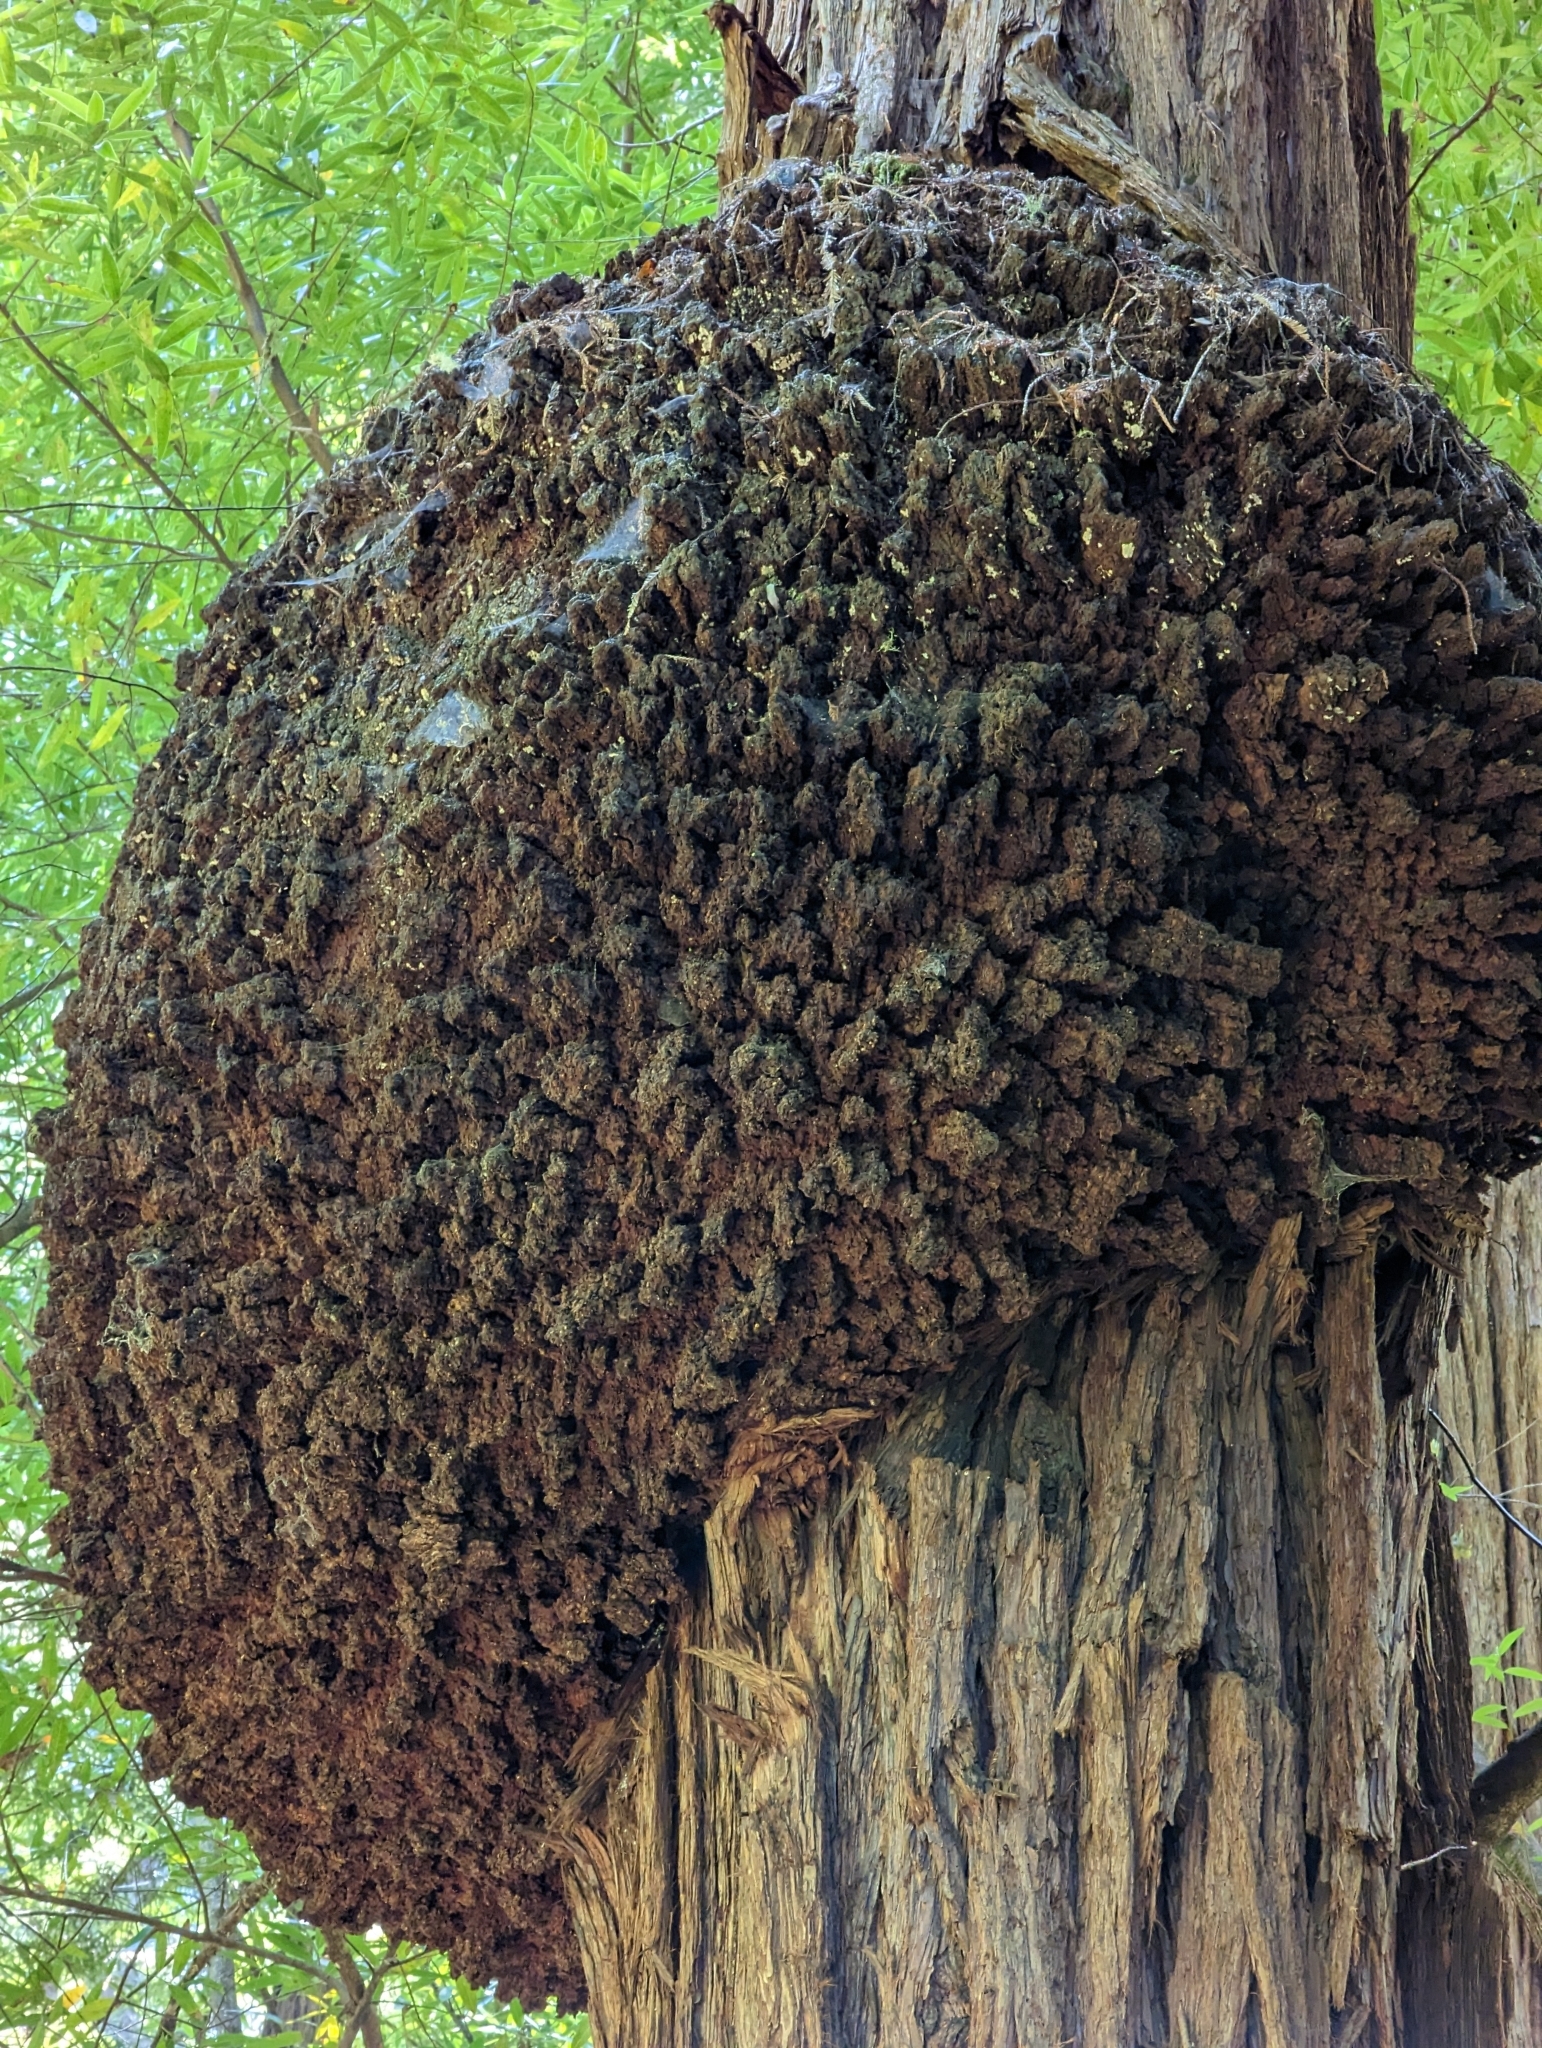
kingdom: Plantae
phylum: Tracheophyta
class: Pinopsida
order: Pinales
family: Cupressaceae
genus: Sequoia
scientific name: Sequoia sempervirens
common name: Coast redwood
